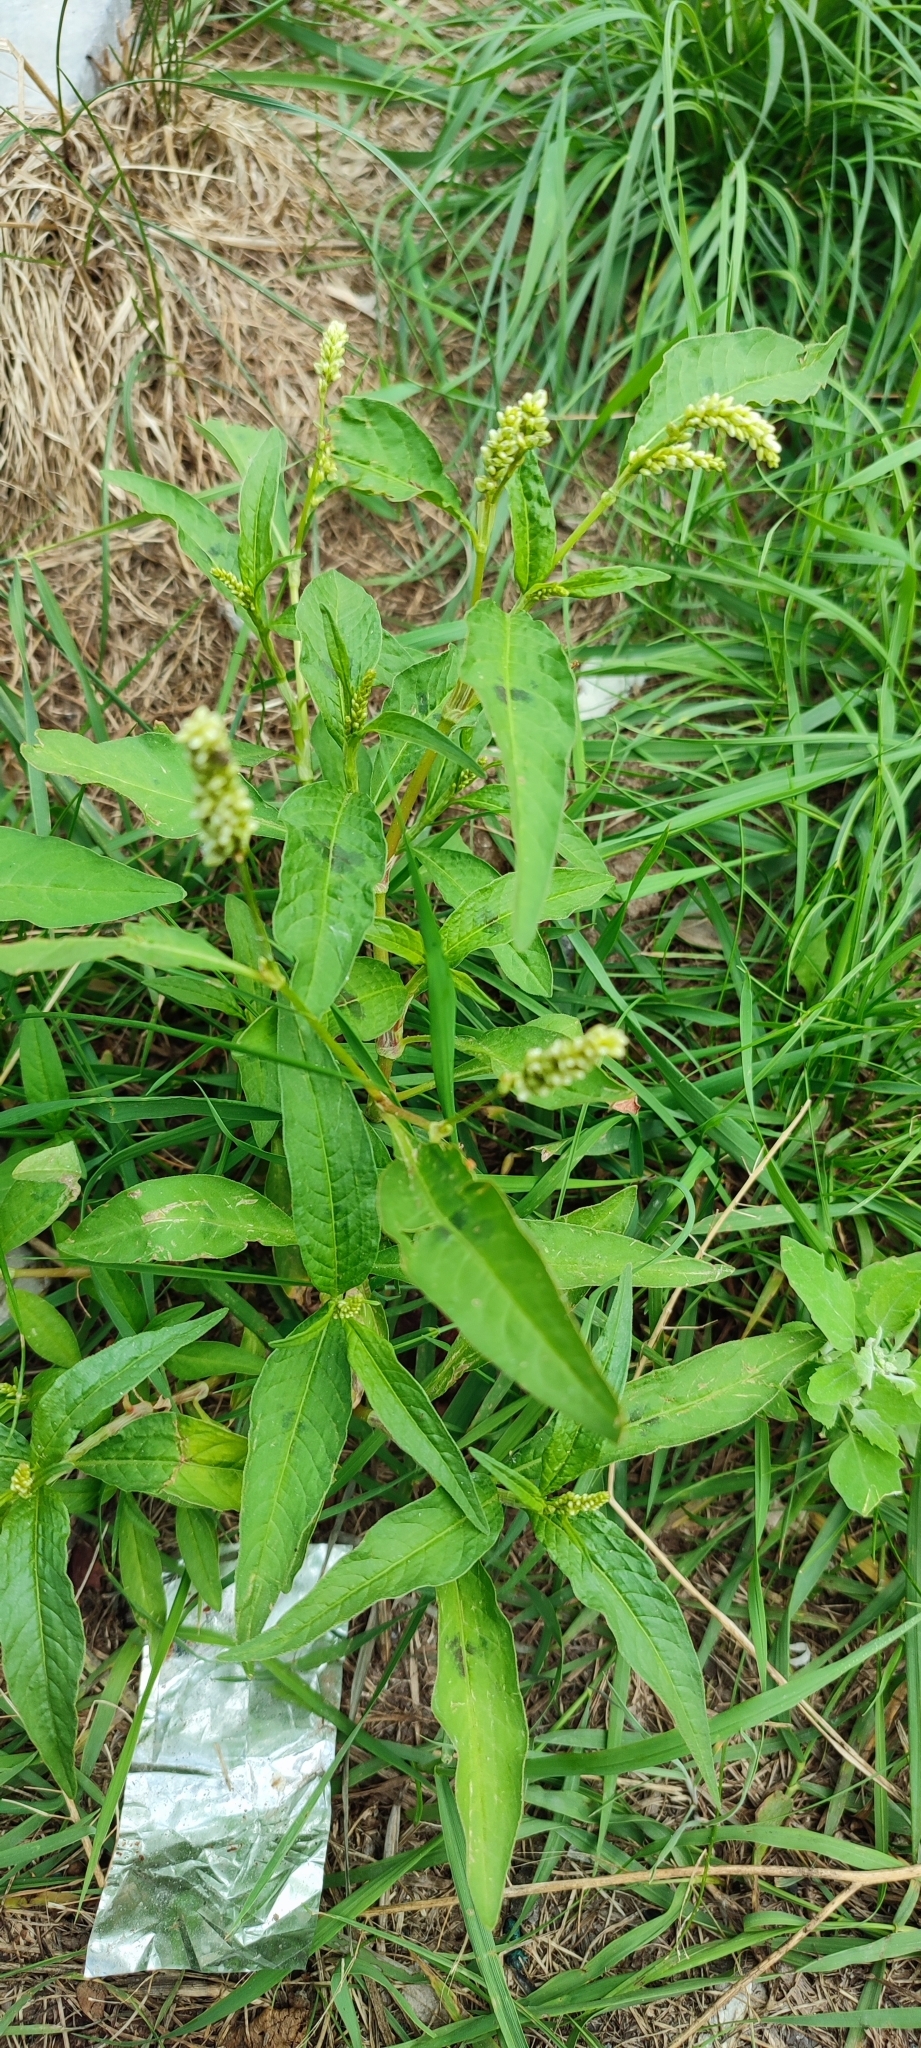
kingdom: Plantae
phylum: Tracheophyta
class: Magnoliopsida
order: Caryophyllales
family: Polygonaceae
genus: Persicaria
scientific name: Persicaria lapathifolia
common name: Curlytop knotweed
